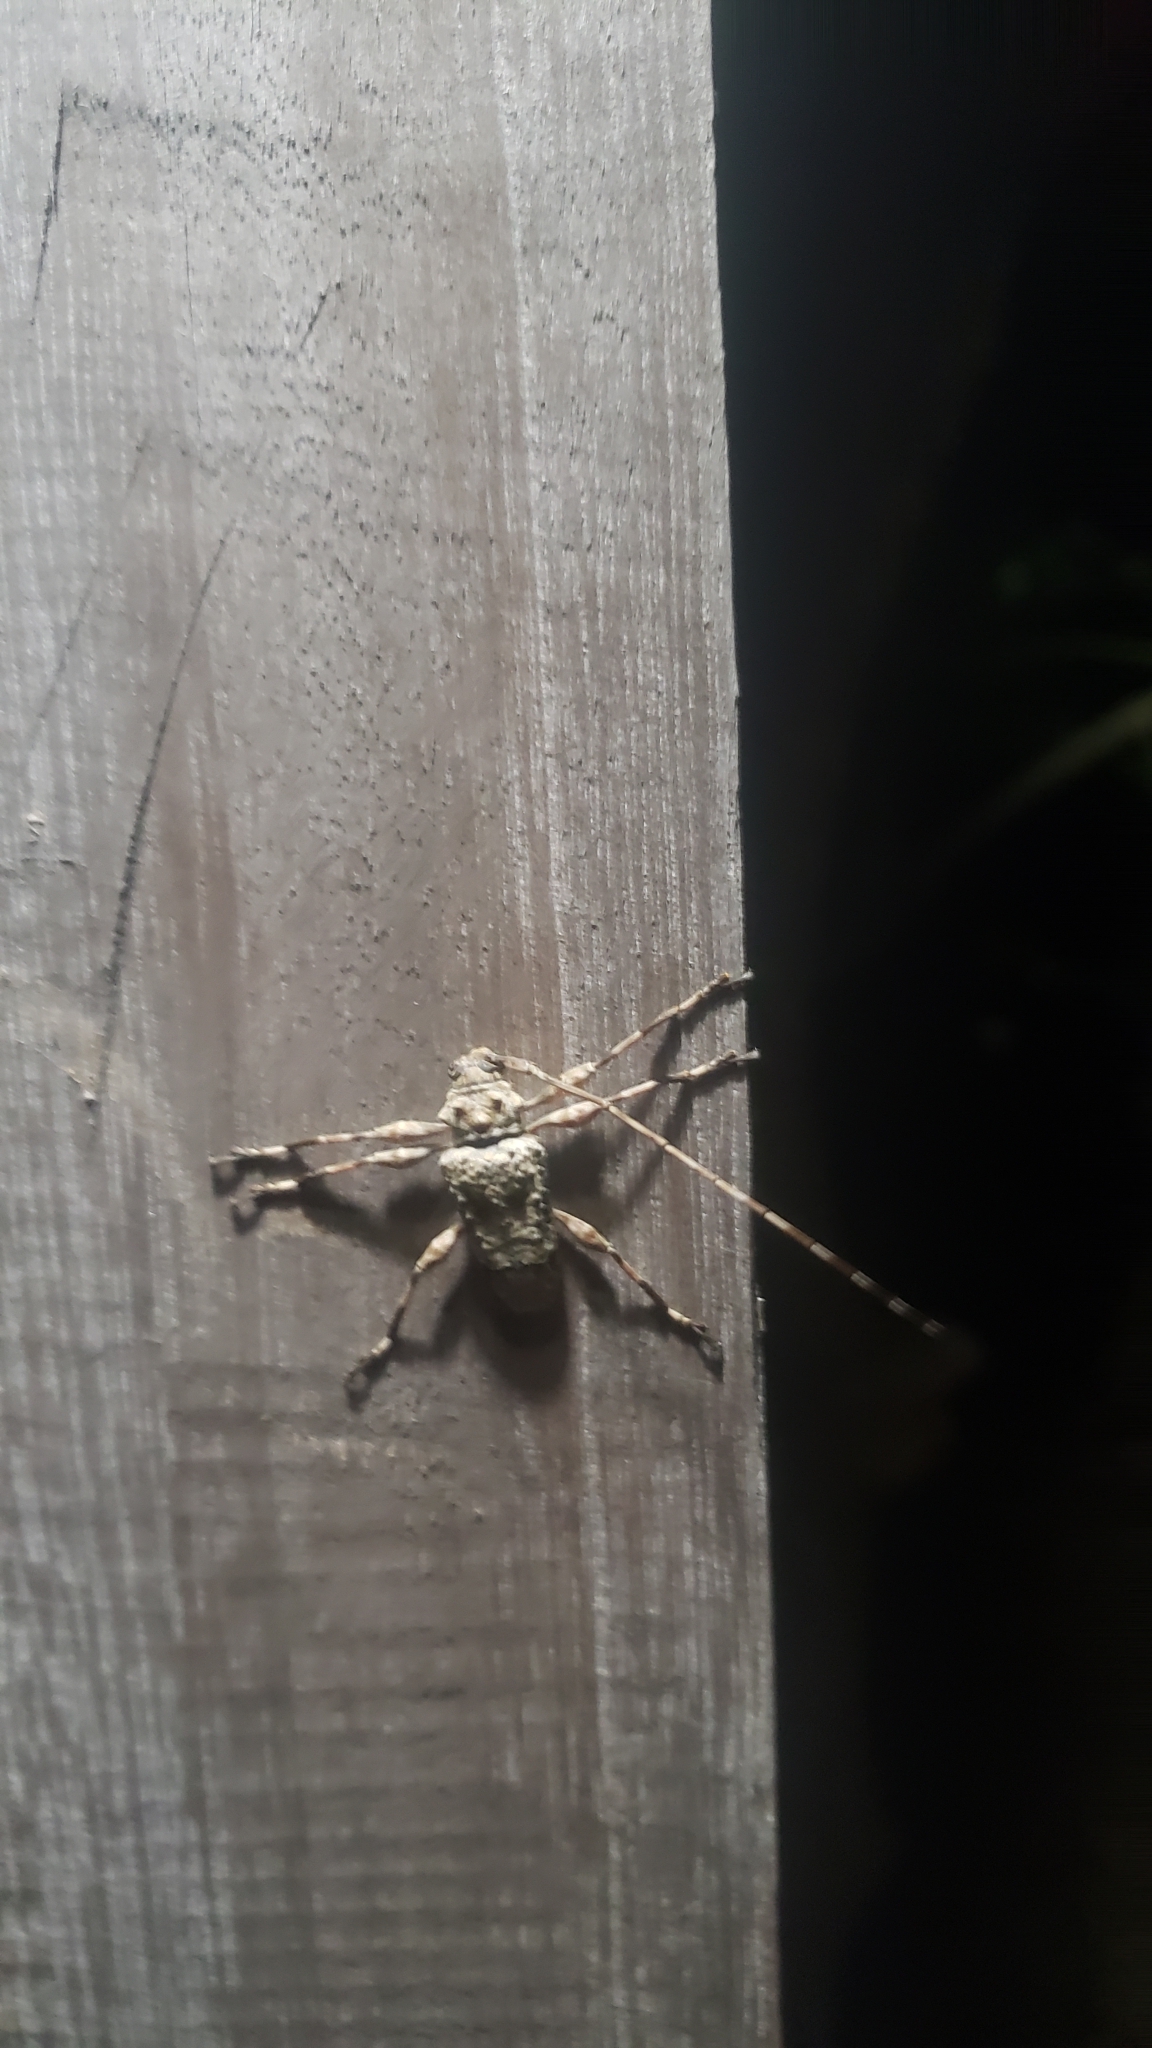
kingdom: Animalia
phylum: Arthropoda
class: Insecta
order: Coleoptera
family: Cerambycidae
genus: Lagocheirus
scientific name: Lagocheirus araneiformis
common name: Beetle
